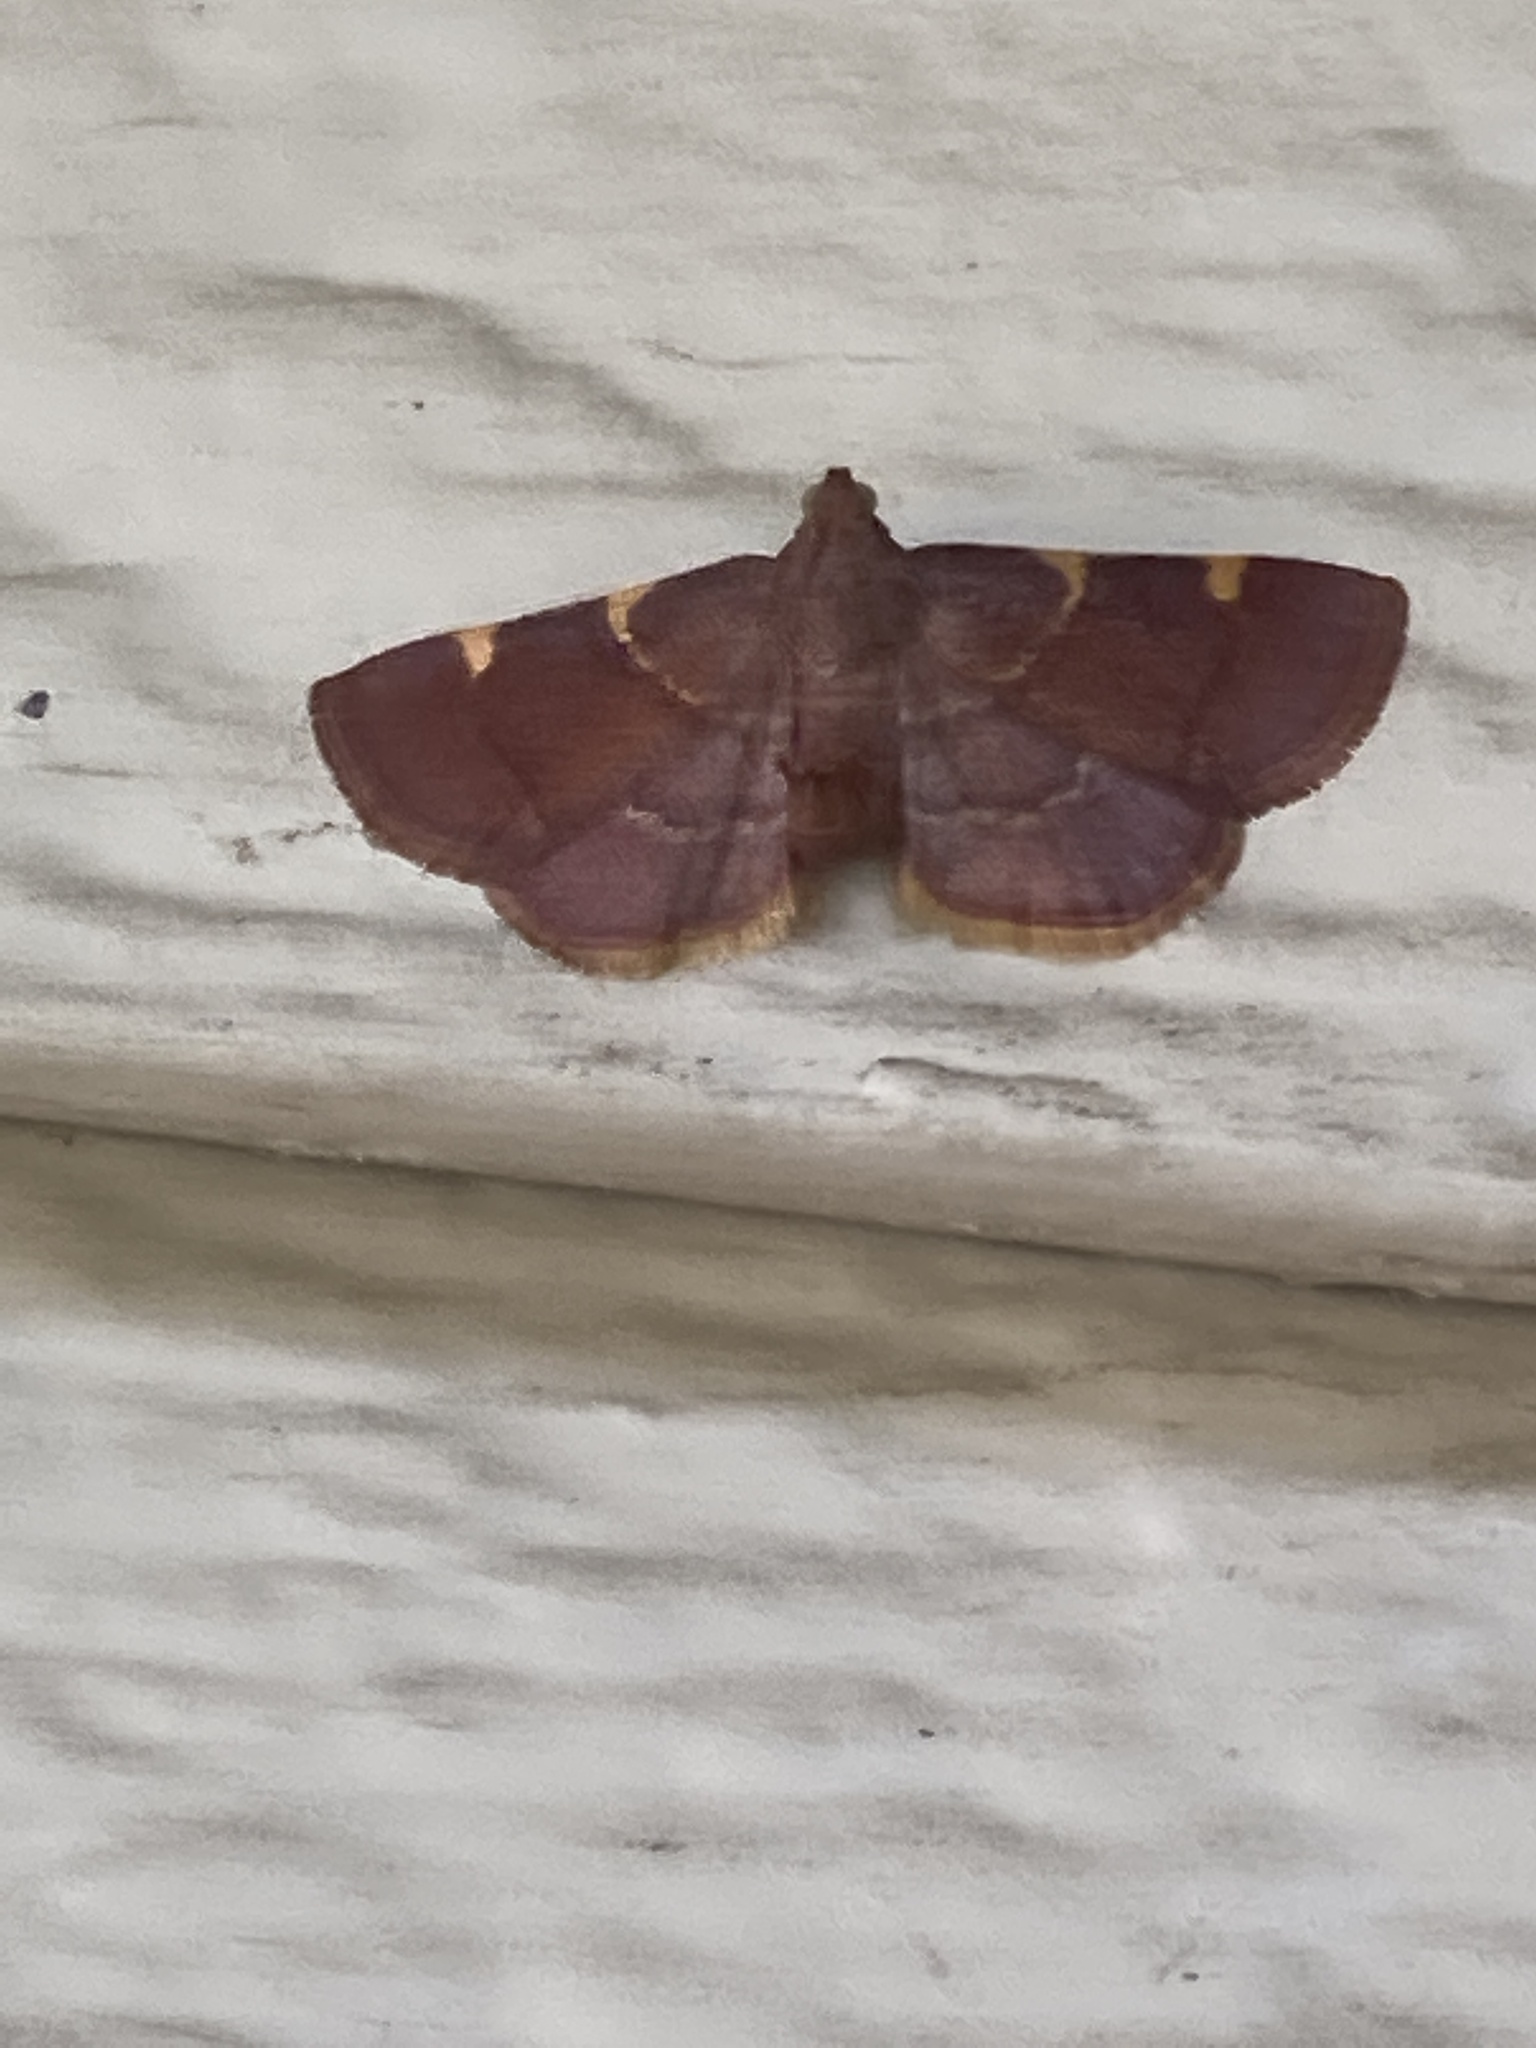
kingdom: Animalia
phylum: Arthropoda
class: Insecta
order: Lepidoptera
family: Pyralidae
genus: Hypsopygia
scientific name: Hypsopygia olinalis
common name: Yellow-fringed dolichomia moth
